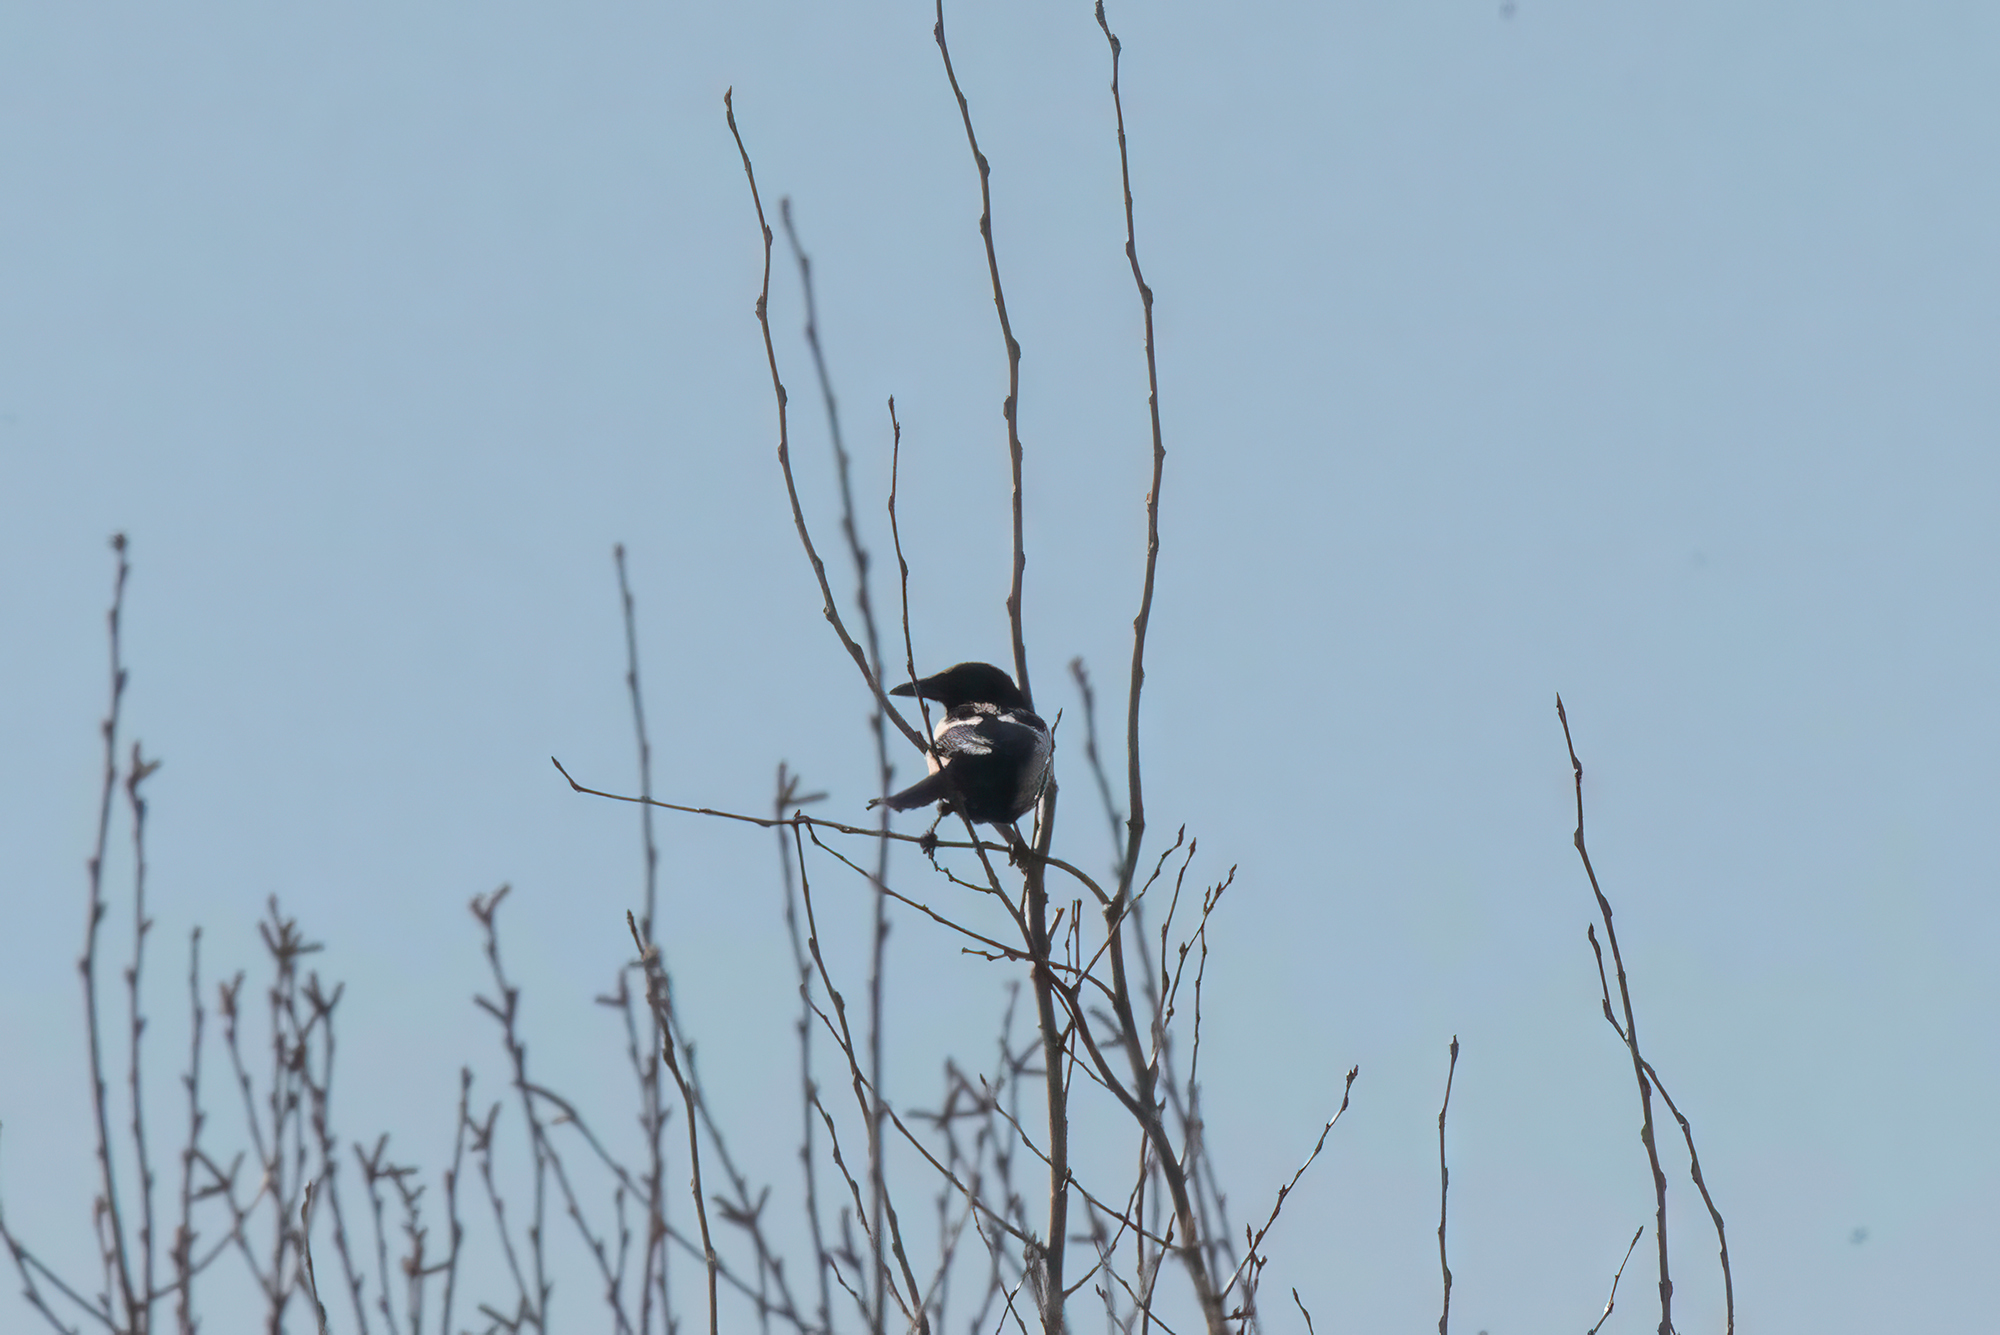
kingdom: Animalia
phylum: Chordata
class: Aves
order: Passeriformes
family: Corvidae
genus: Pica
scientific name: Pica pica
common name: Eurasian magpie
